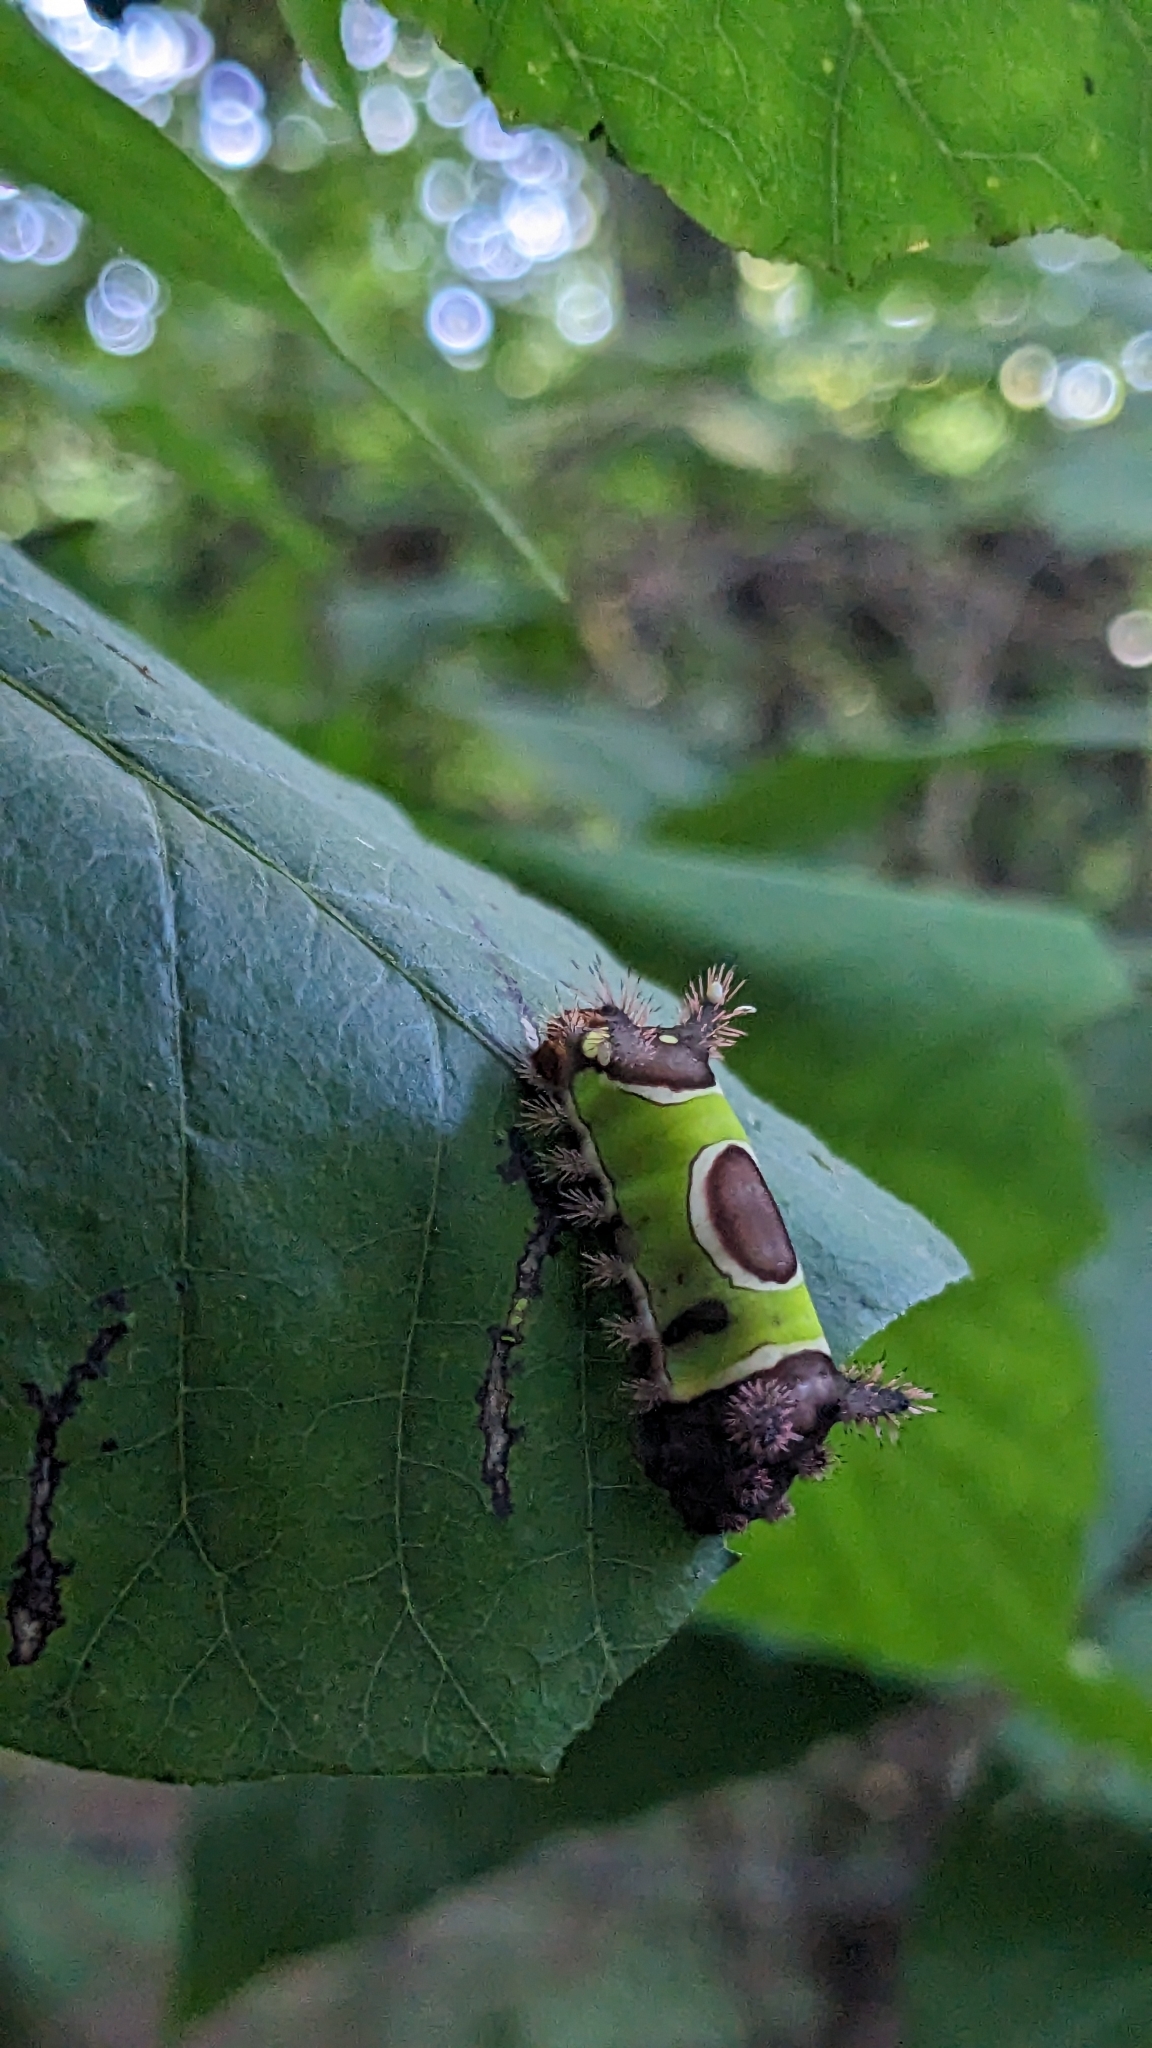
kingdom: Animalia
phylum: Arthropoda
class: Insecta
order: Lepidoptera
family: Limacodidae
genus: Acharia
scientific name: Acharia stimulea
